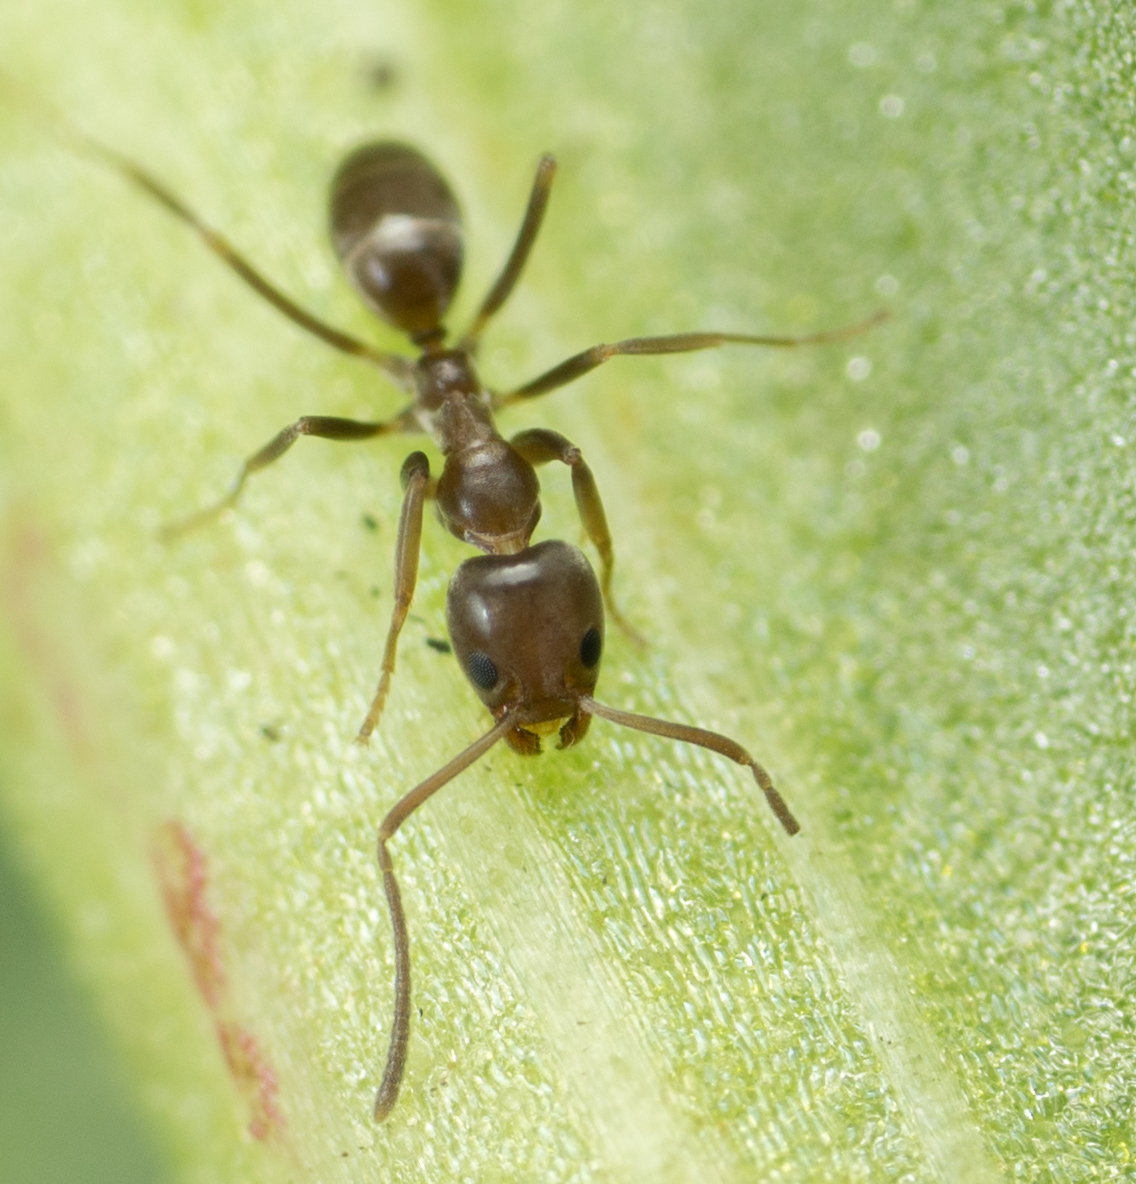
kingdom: Animalia
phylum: Arthropoda
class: Insecta
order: Hymenoptera
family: Formicidae
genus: Linepithema
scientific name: Linepithema humile
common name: Argentine ant
